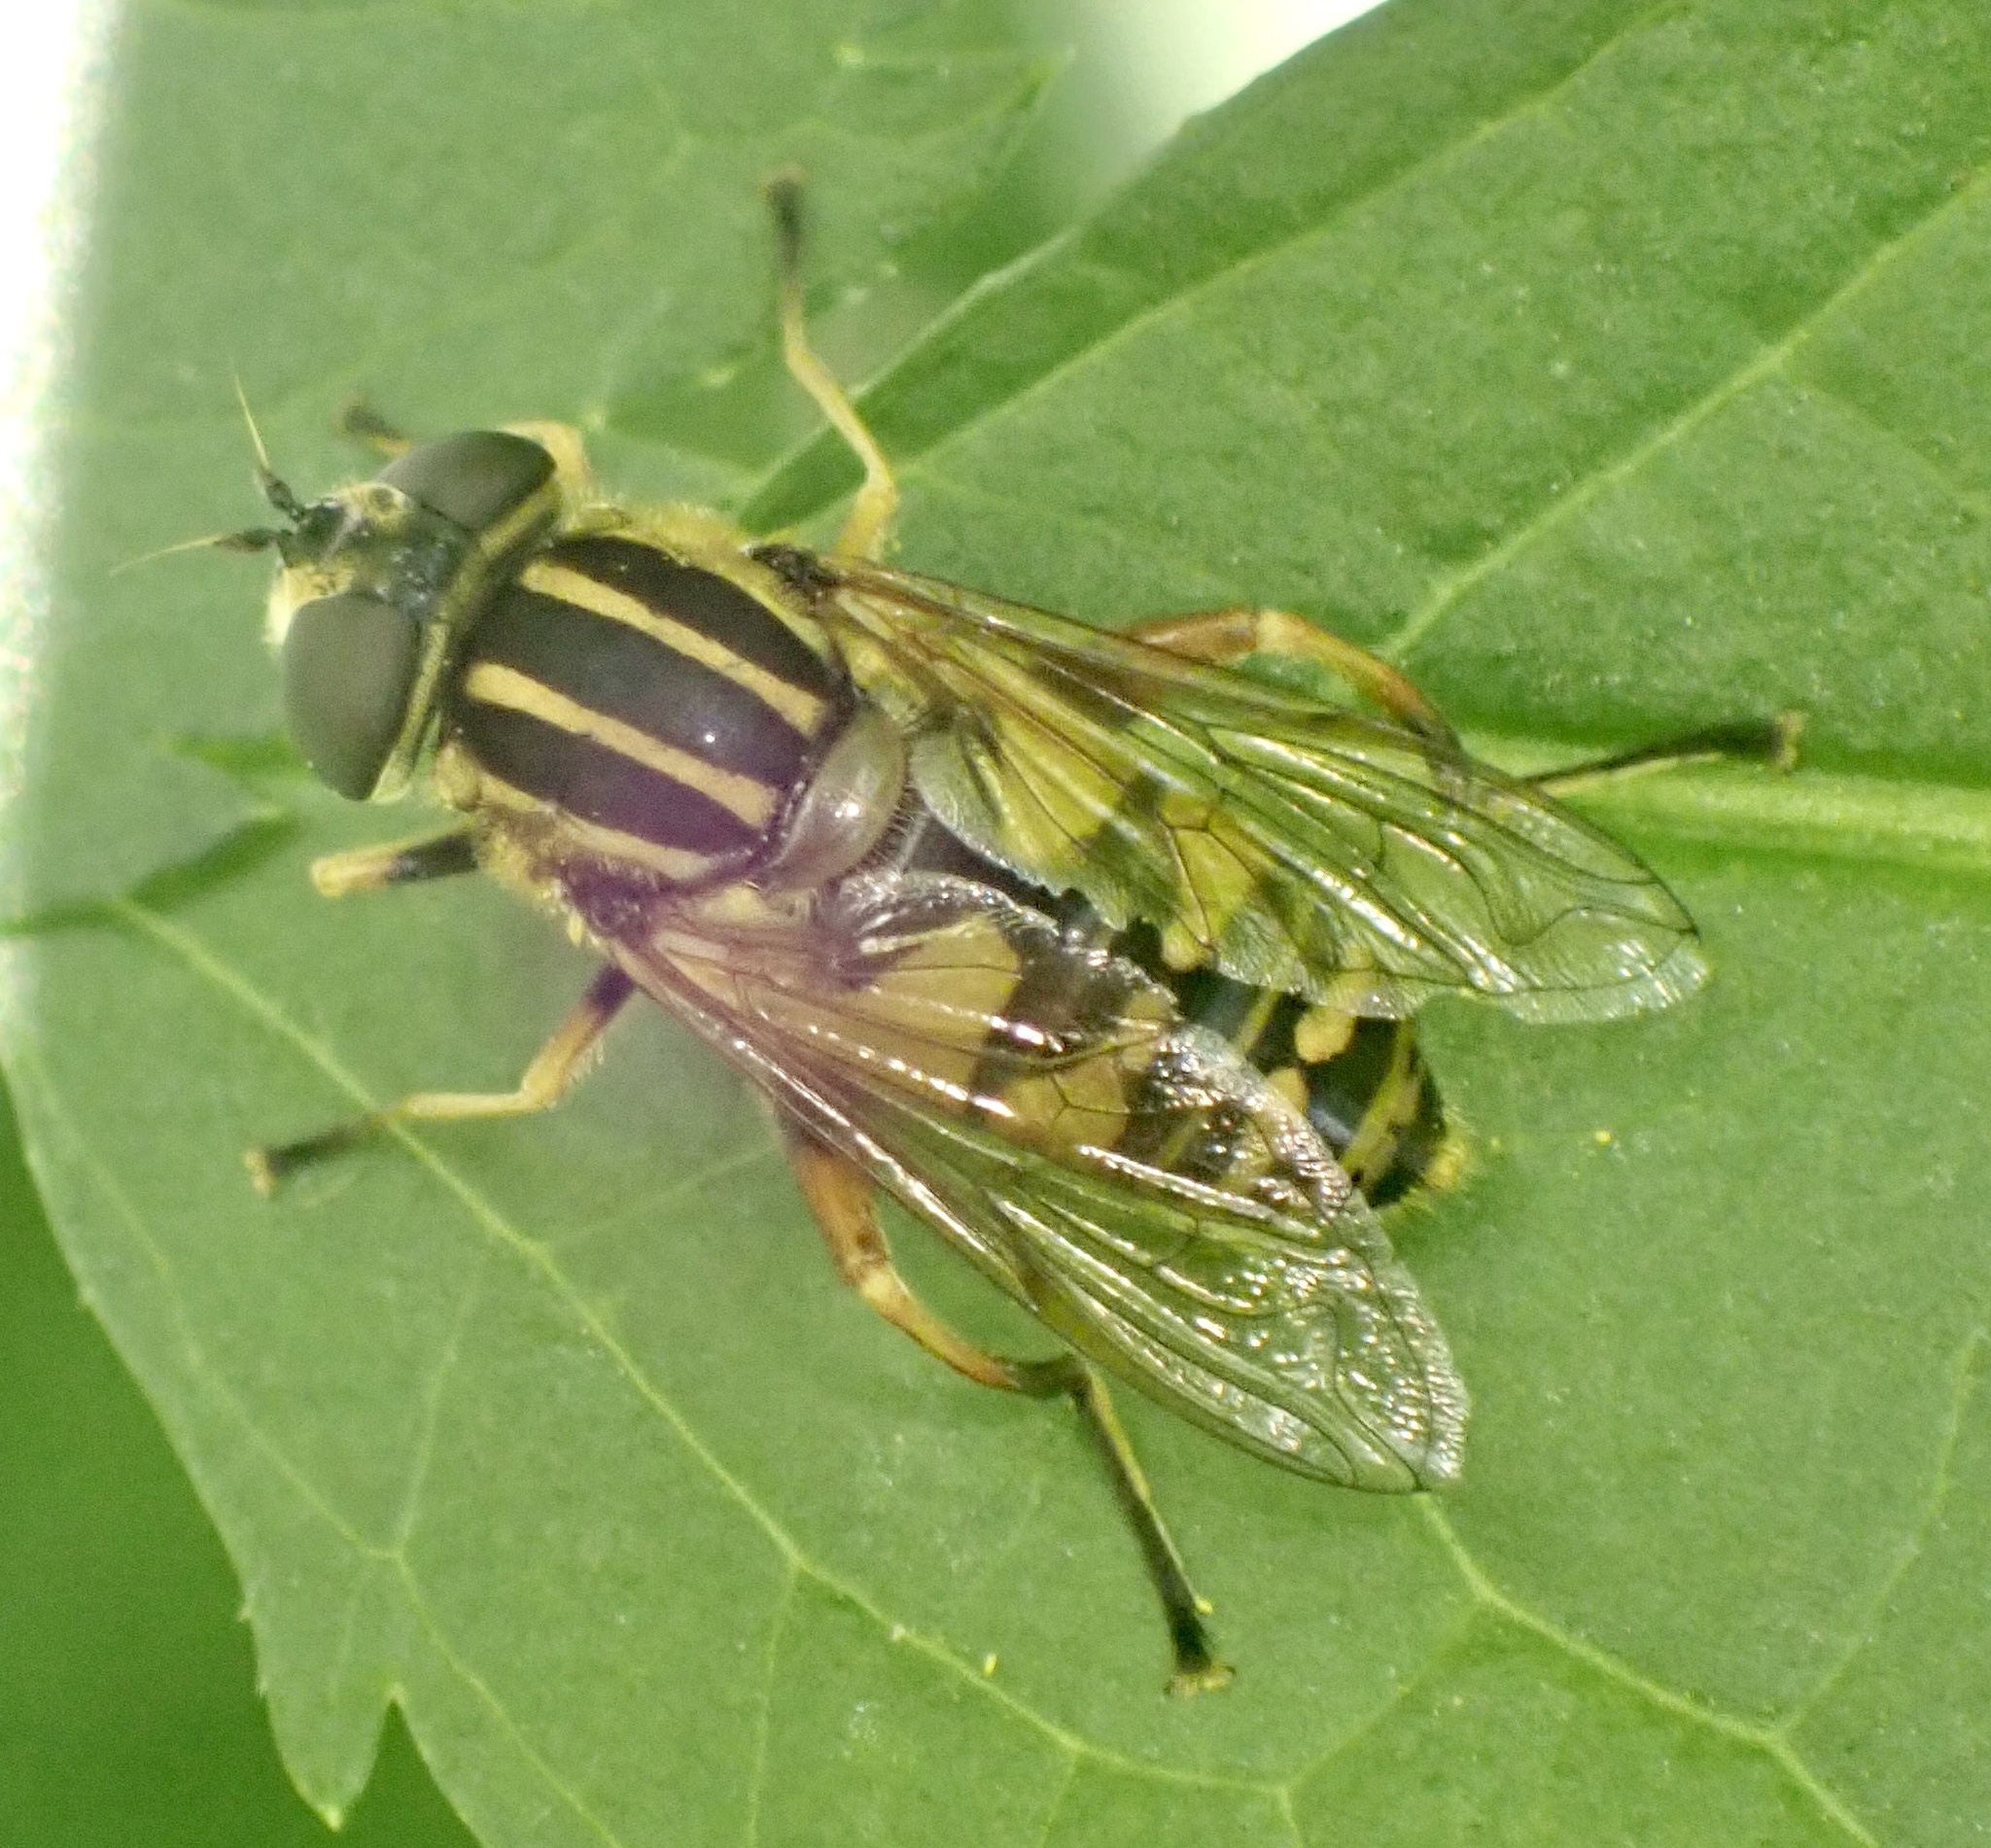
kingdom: Animalia
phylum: Arthropoda
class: Insecta
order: Diptera
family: Syrphidae
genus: Helophilus
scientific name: Helophilus pendulus
